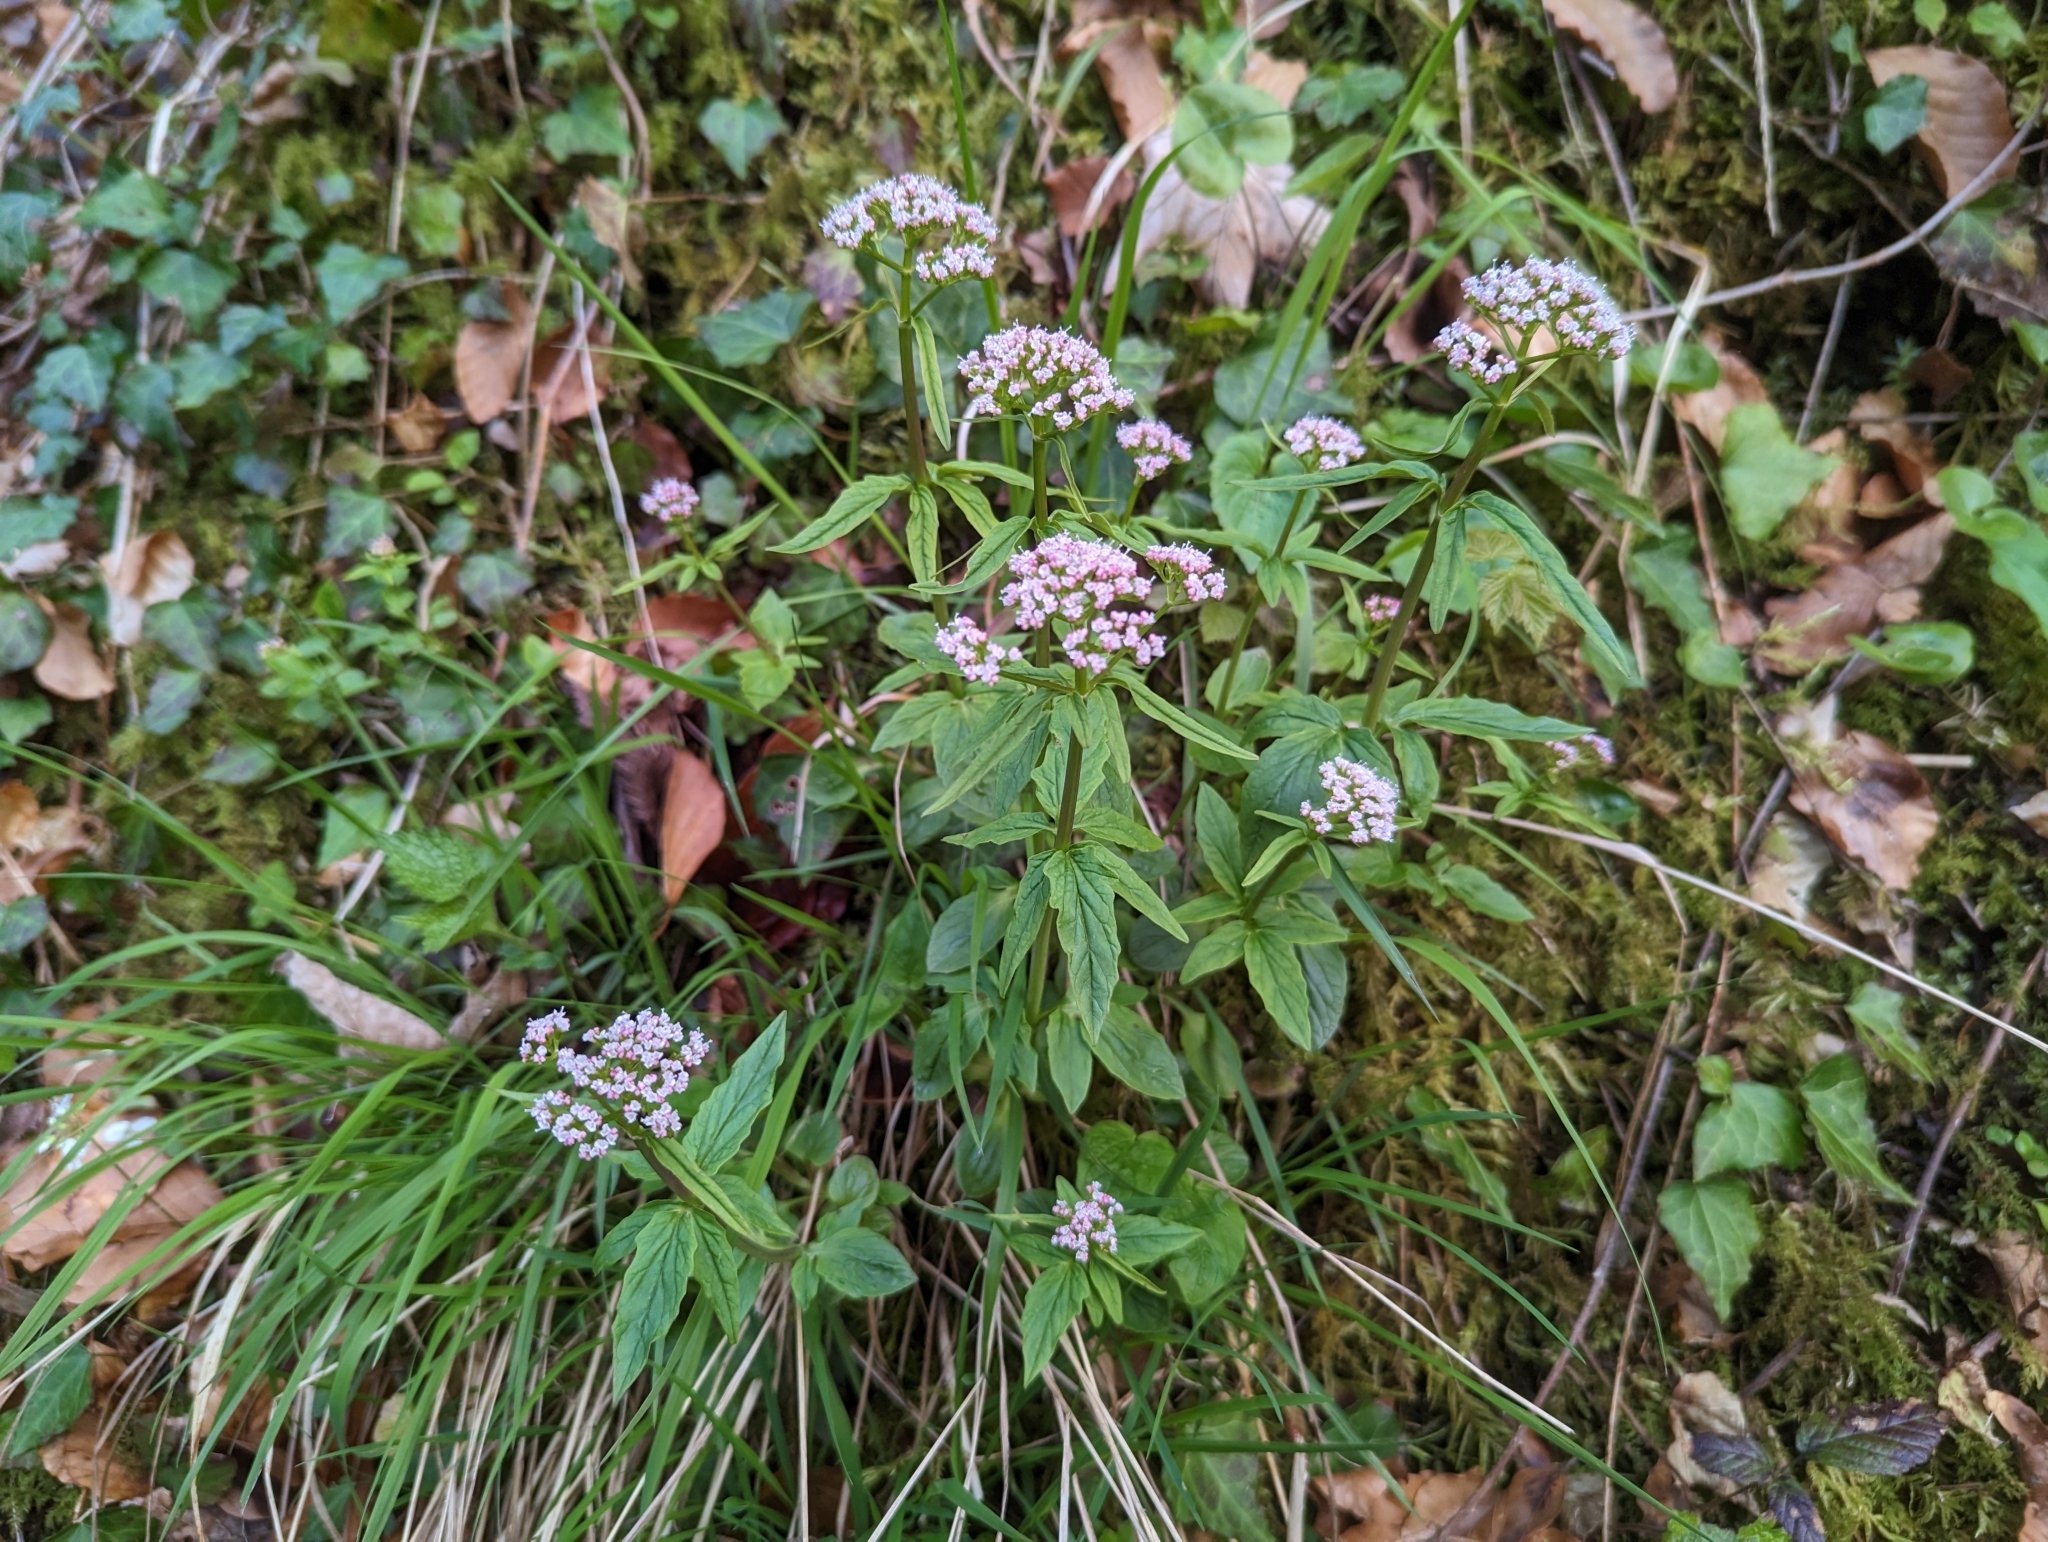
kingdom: Plantae
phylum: Tracheophyta
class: Magnoliopsida
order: Dipsacales
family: Caprifoliaceae
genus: Valeriana
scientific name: Valeriana tripteris
